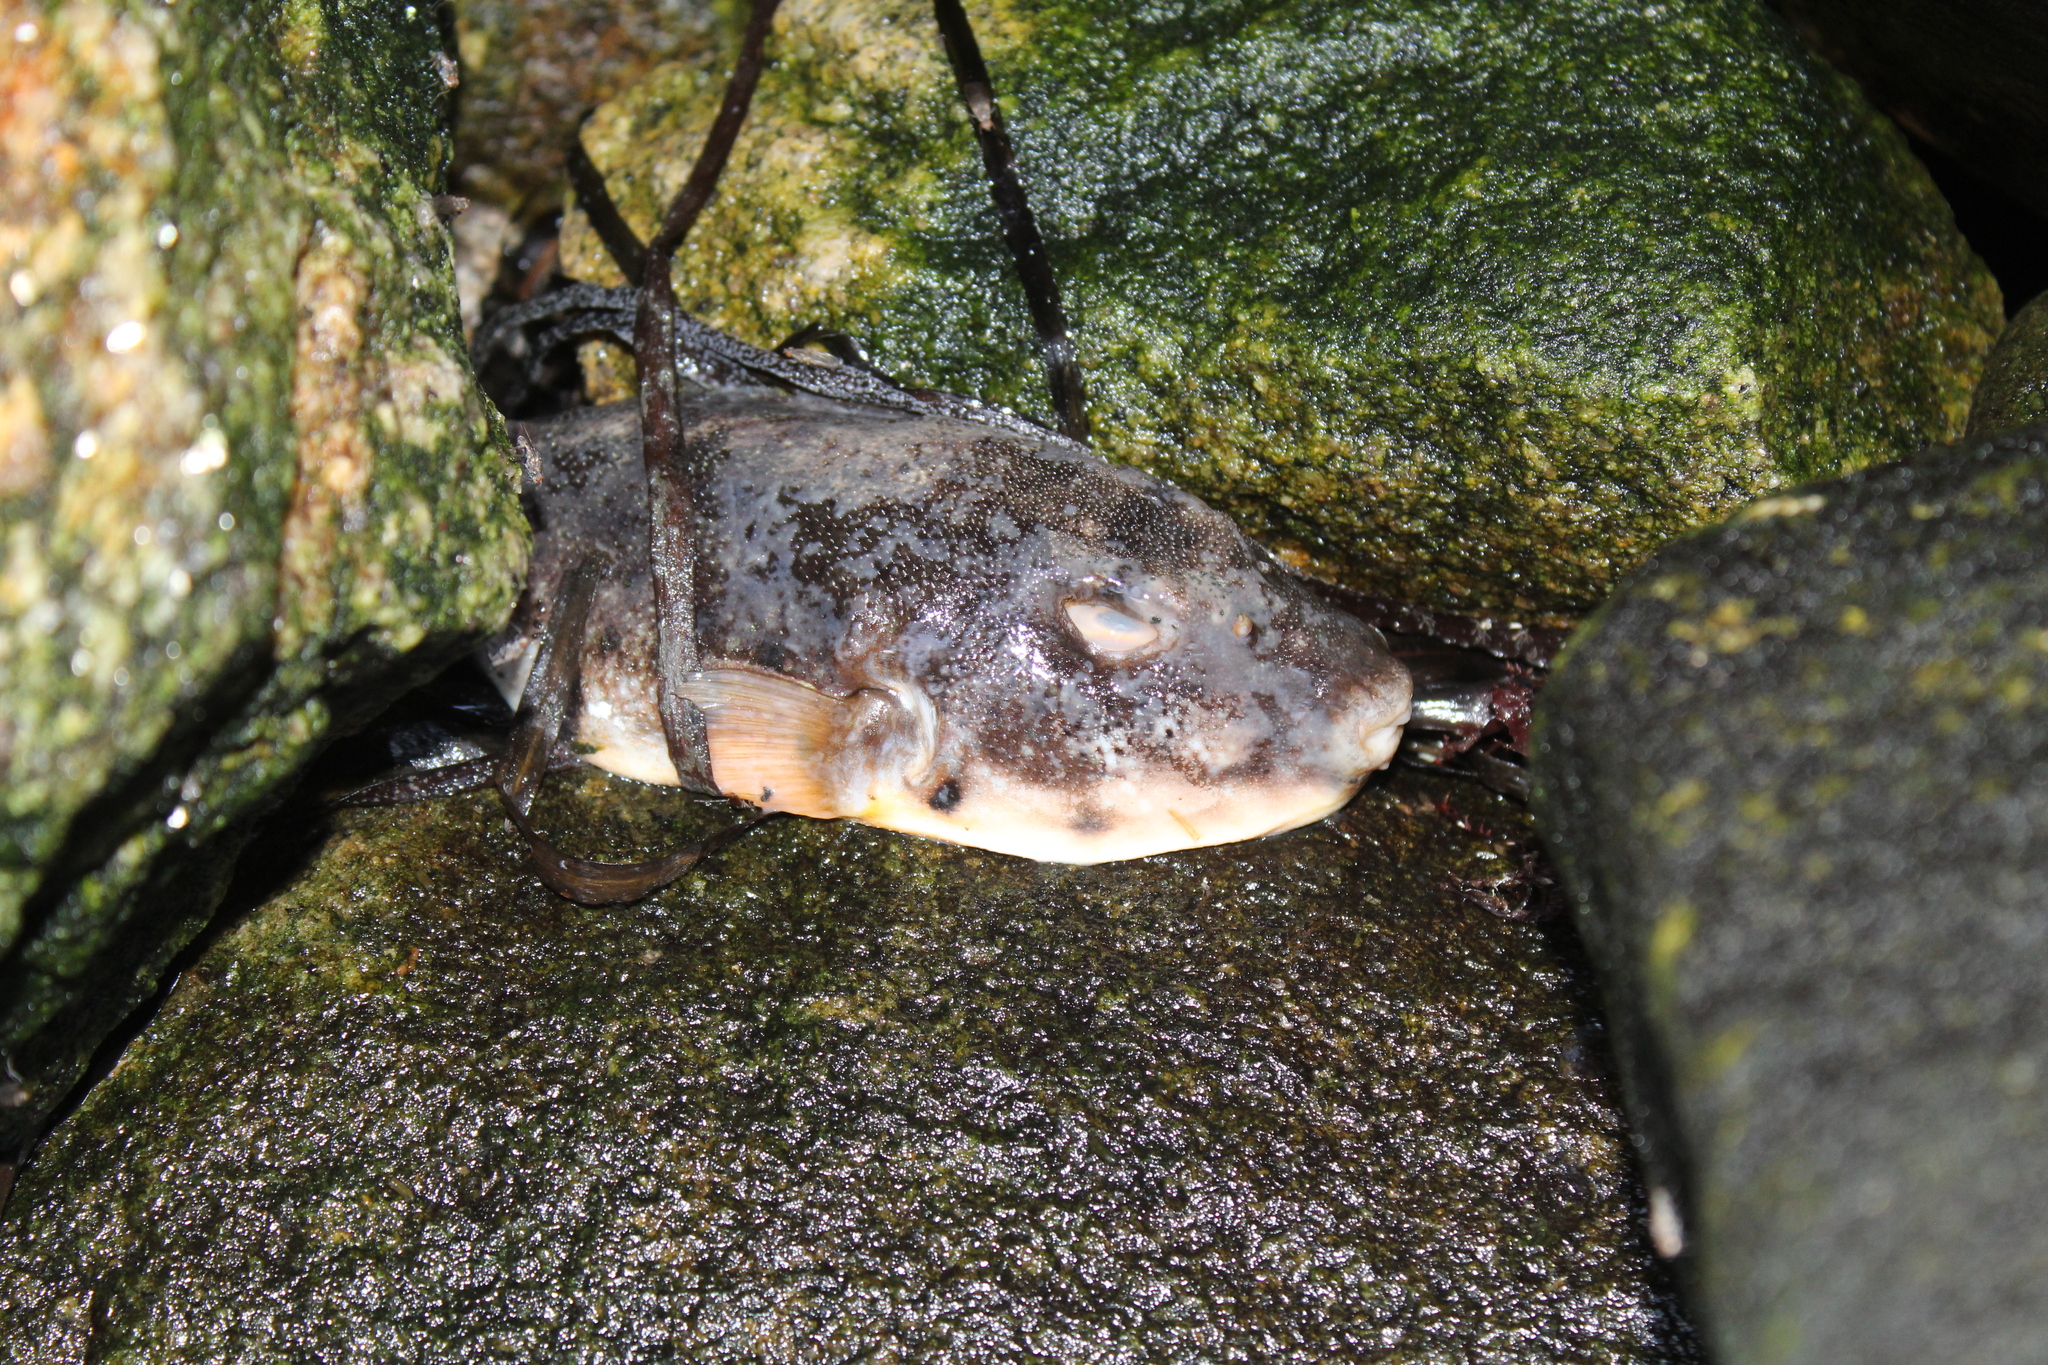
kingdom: Animalia
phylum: Chordata
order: Tetraodontiformes
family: Tetraodontidae
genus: Sphoeroides
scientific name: Sphoeroides maculatus
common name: Northern puffer
